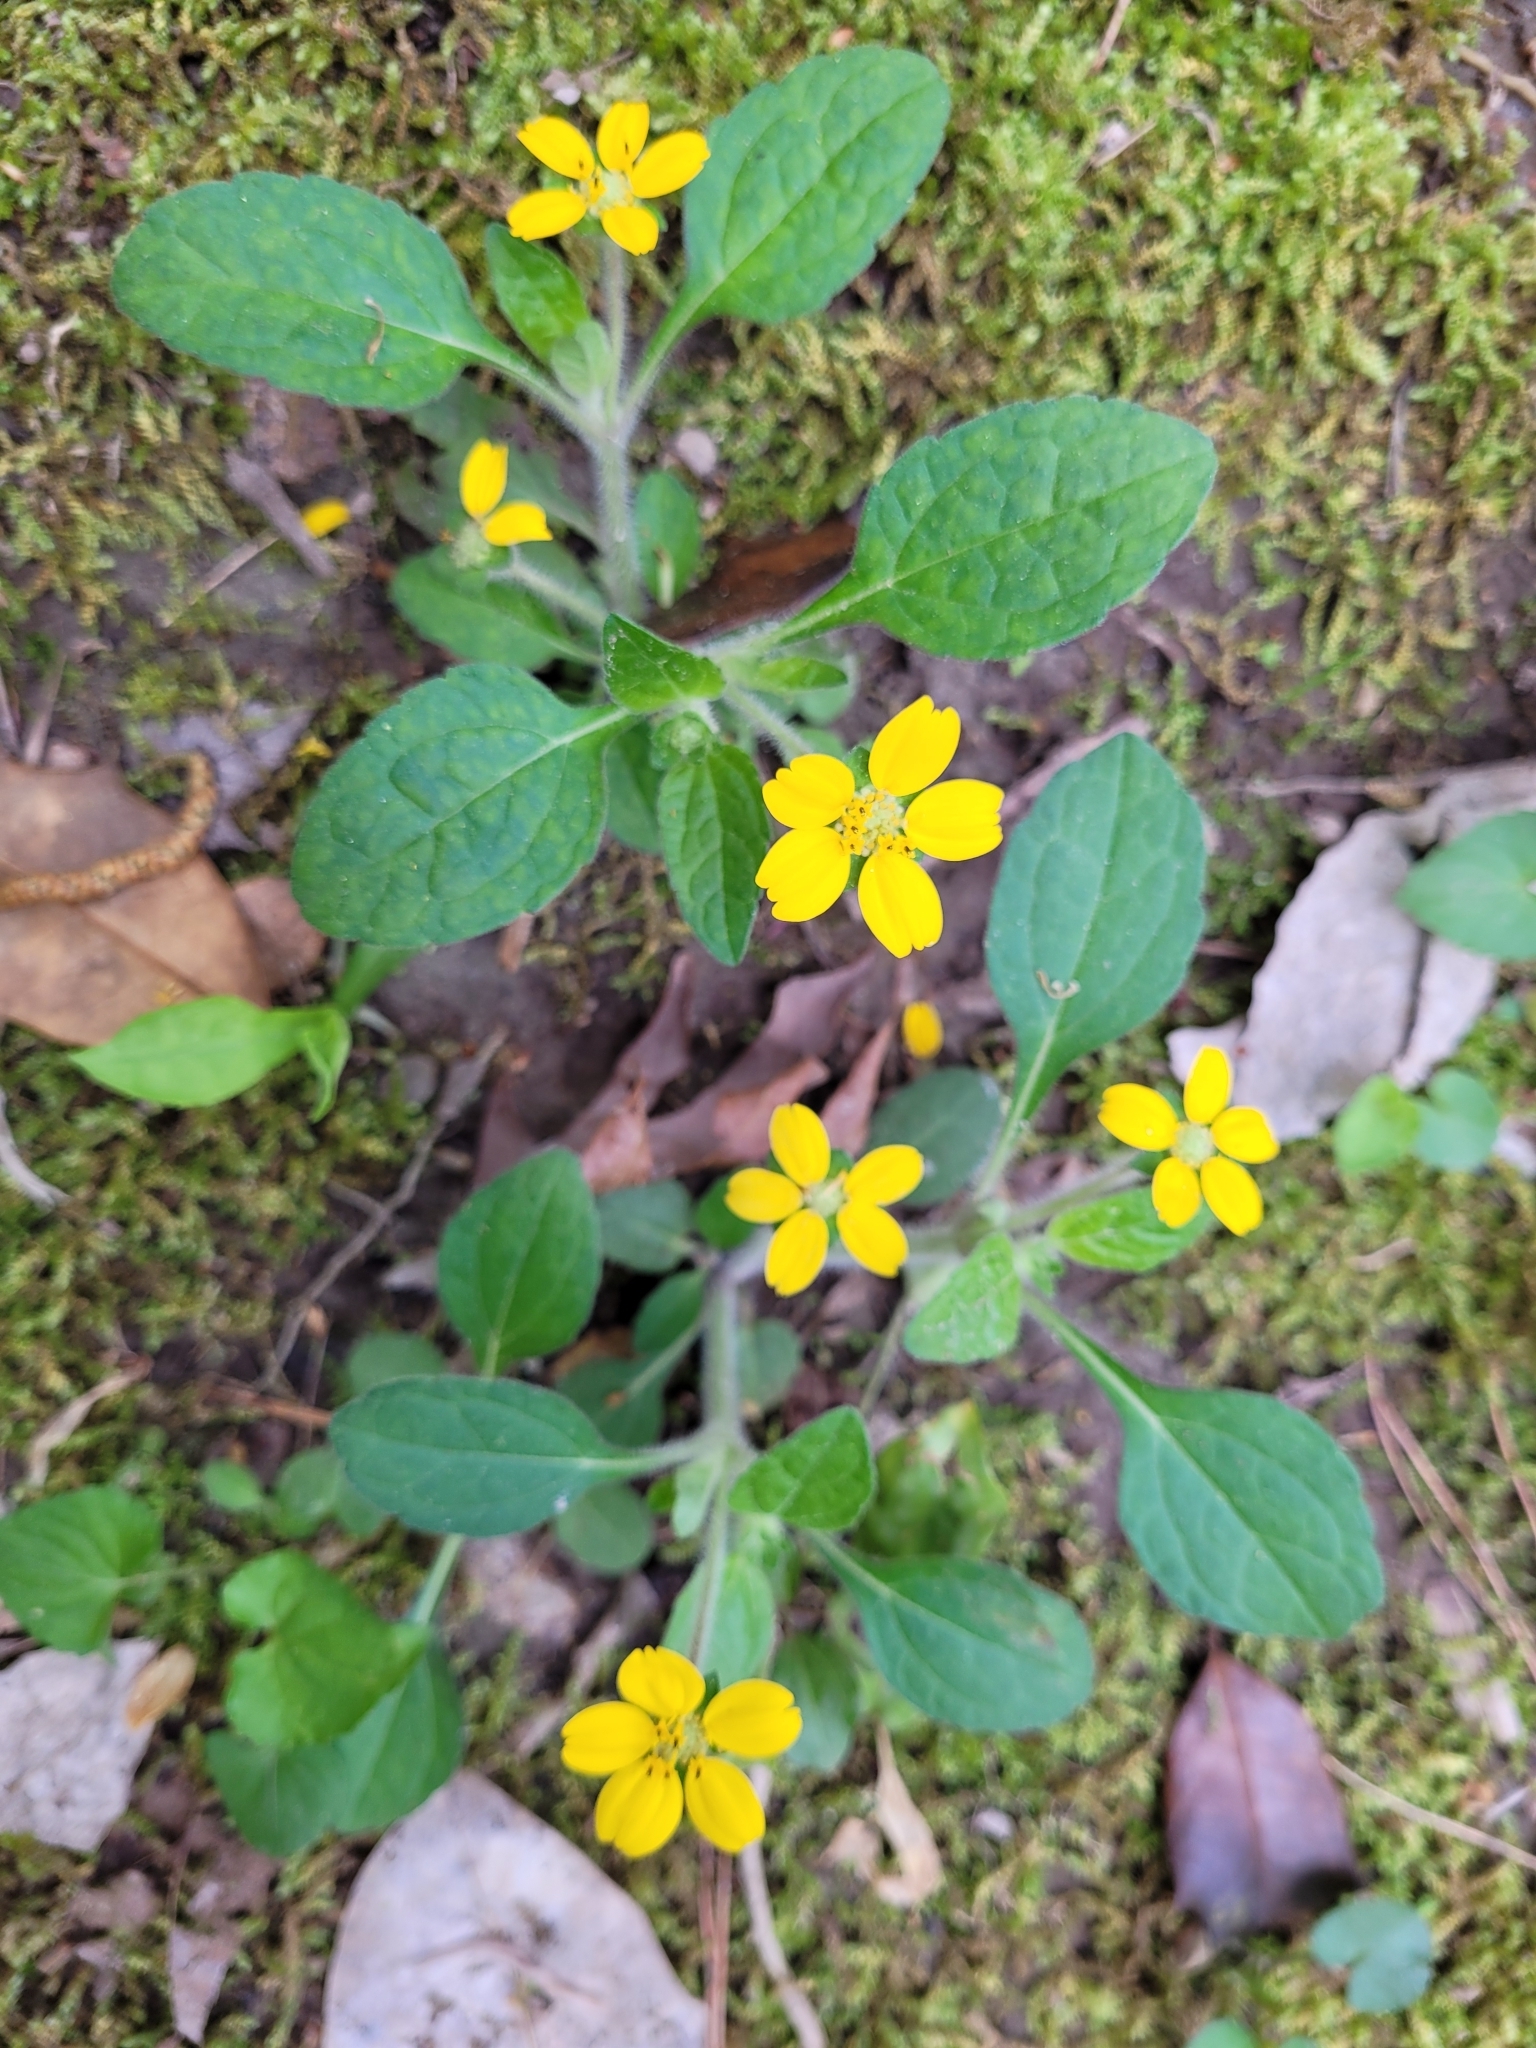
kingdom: Plantae
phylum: Tracheophyta
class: Magnoliopsida
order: Asterales
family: Asteraceae
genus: Chrysogonum
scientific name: Chrysogonum virginianum
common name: Golden-knee
